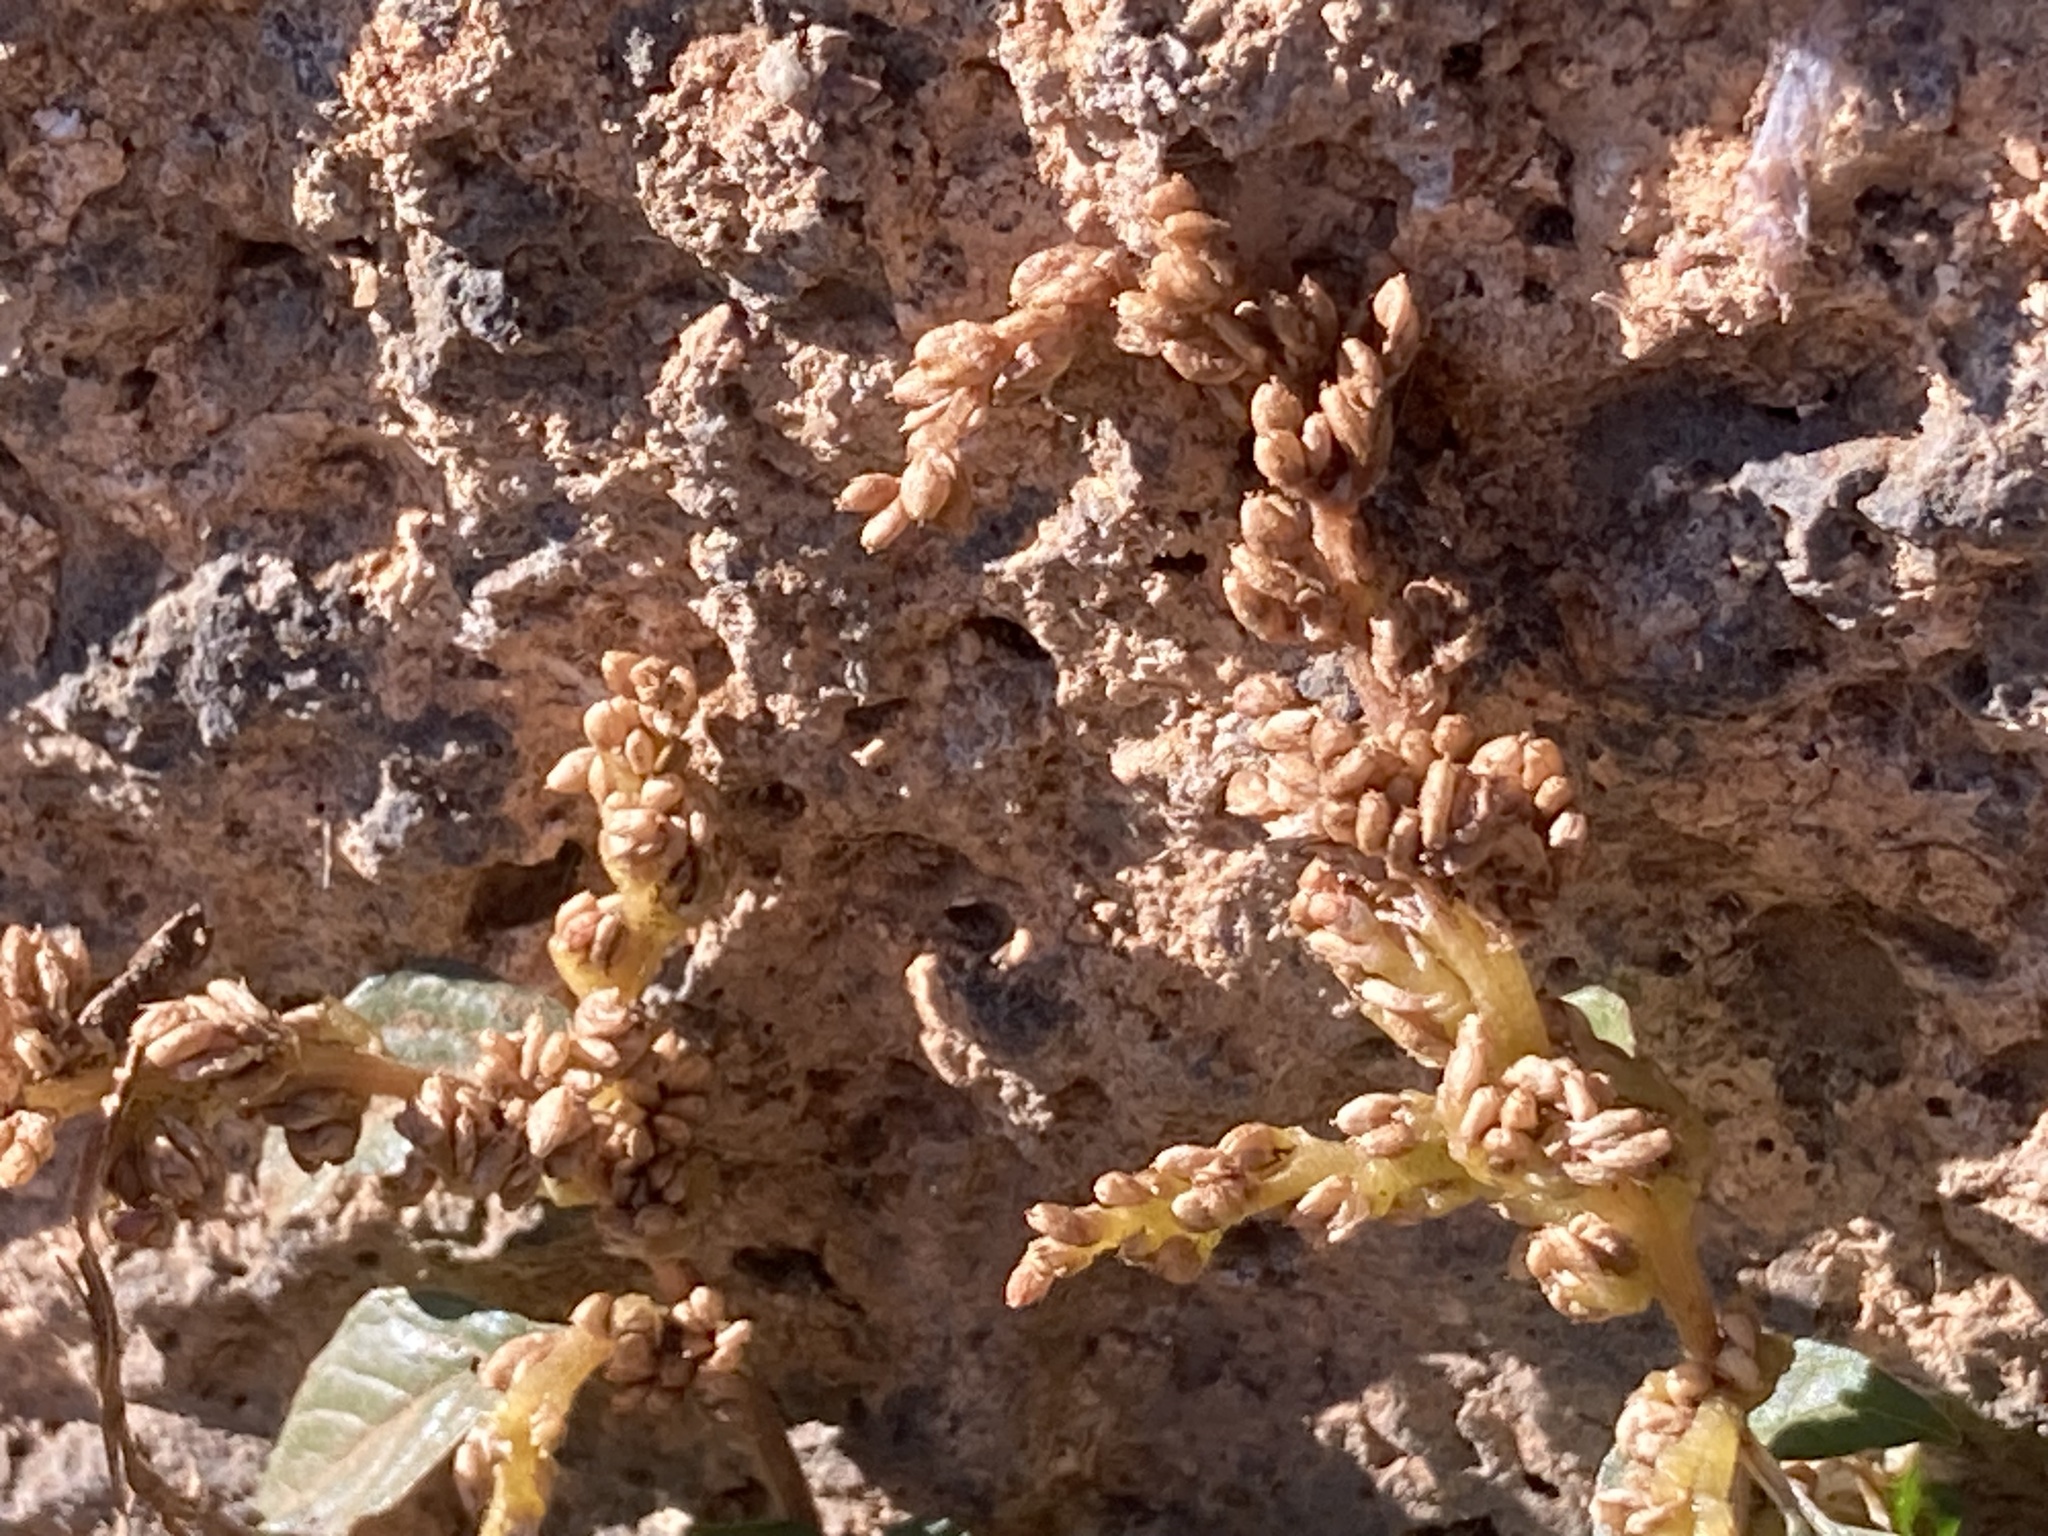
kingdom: Plantae
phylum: Tracheophyta
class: Magnoliopsida
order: Caryophyllales
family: Amaranthaceae
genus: Amaranthus
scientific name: Amaranthus deflexus
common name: Perennial pigweed
